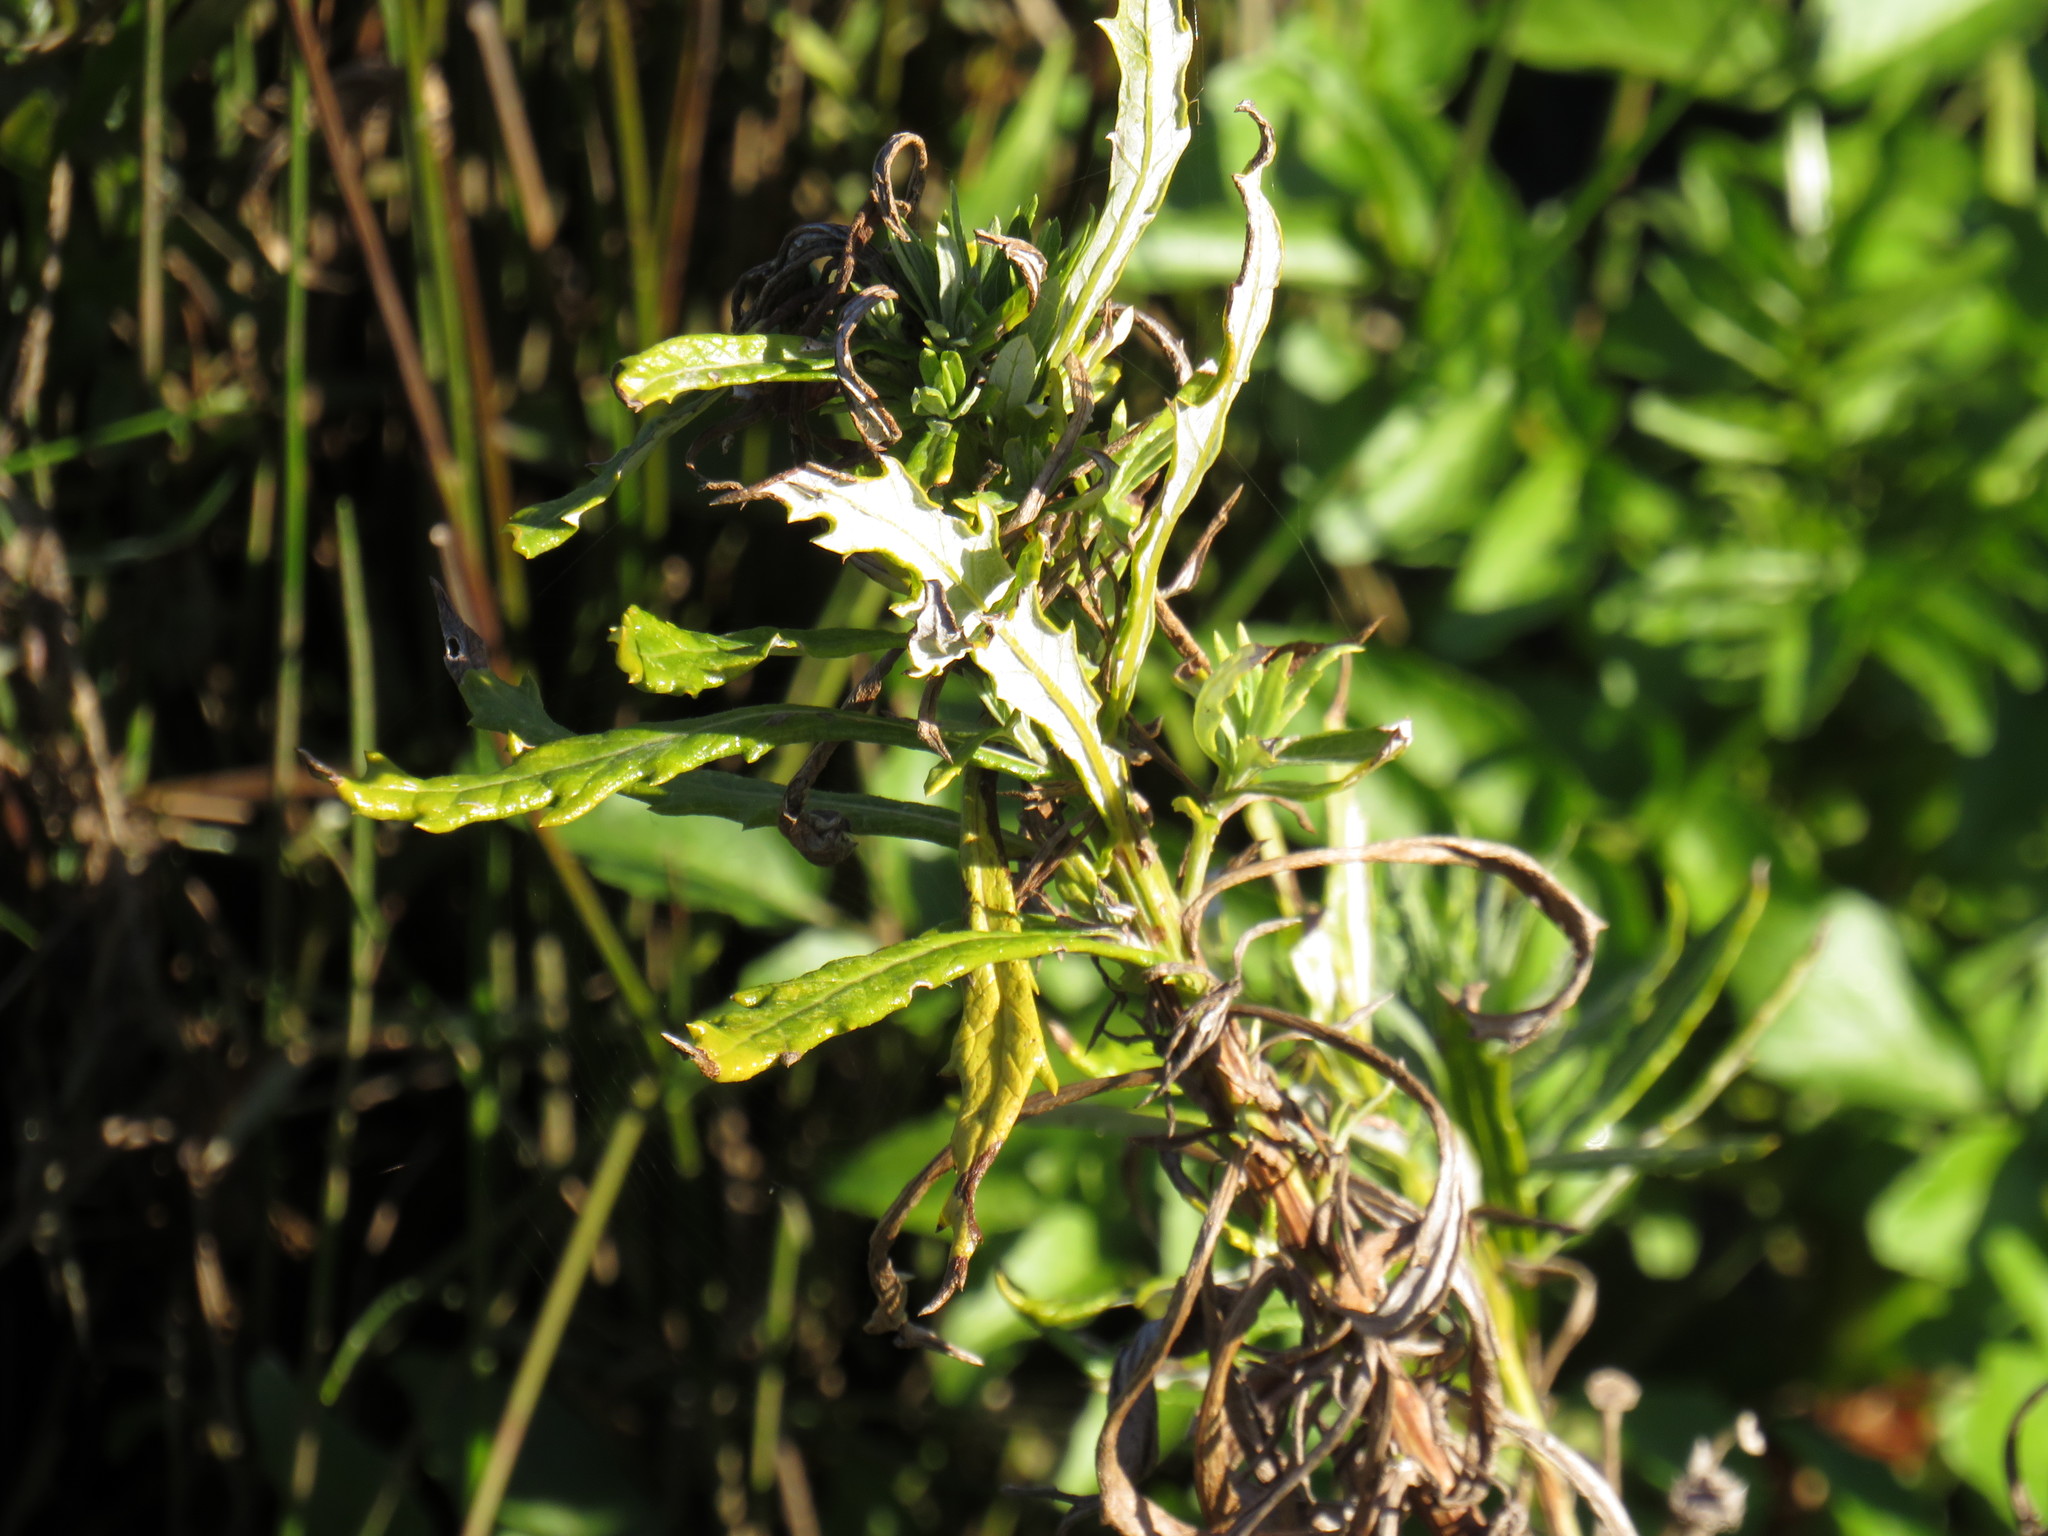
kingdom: Plantae
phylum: Tracheophyta
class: Magnoliopsida
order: Asterales
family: Asteraceae
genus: Senecio
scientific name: Senecio pterophorus
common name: Shoddy ragwort
